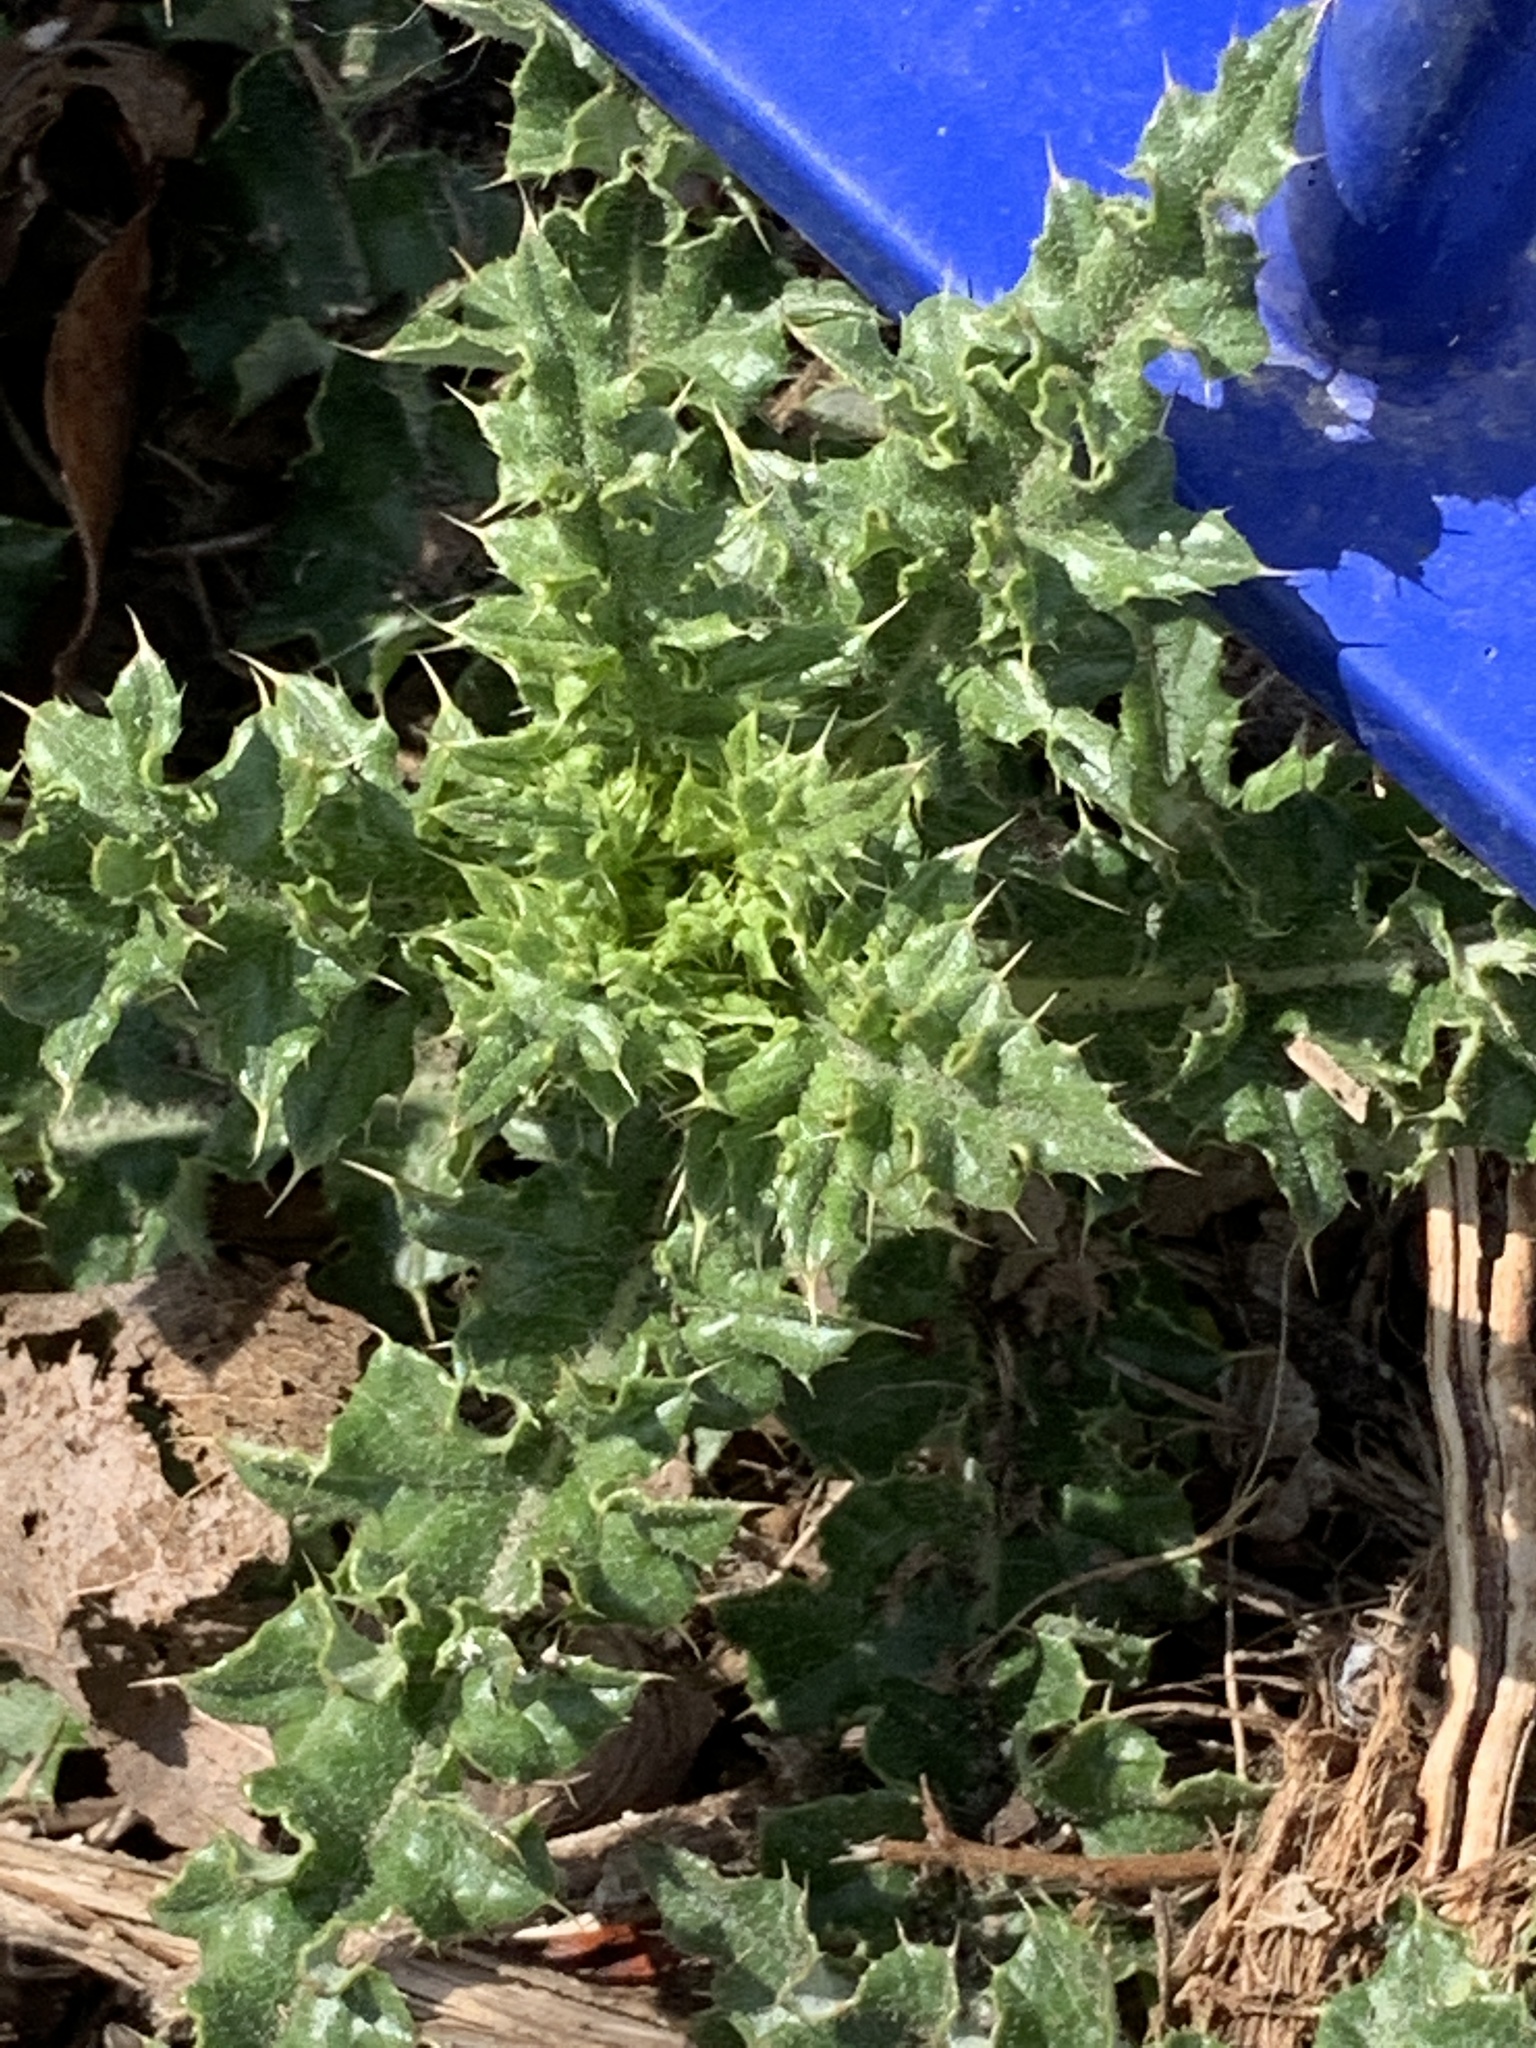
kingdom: Plantae
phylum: Tracheophyta
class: Magnoliopsida
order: Asterales
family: Asteraceae
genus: Cirsium
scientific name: Cirsium arvense
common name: Creeping thistle
